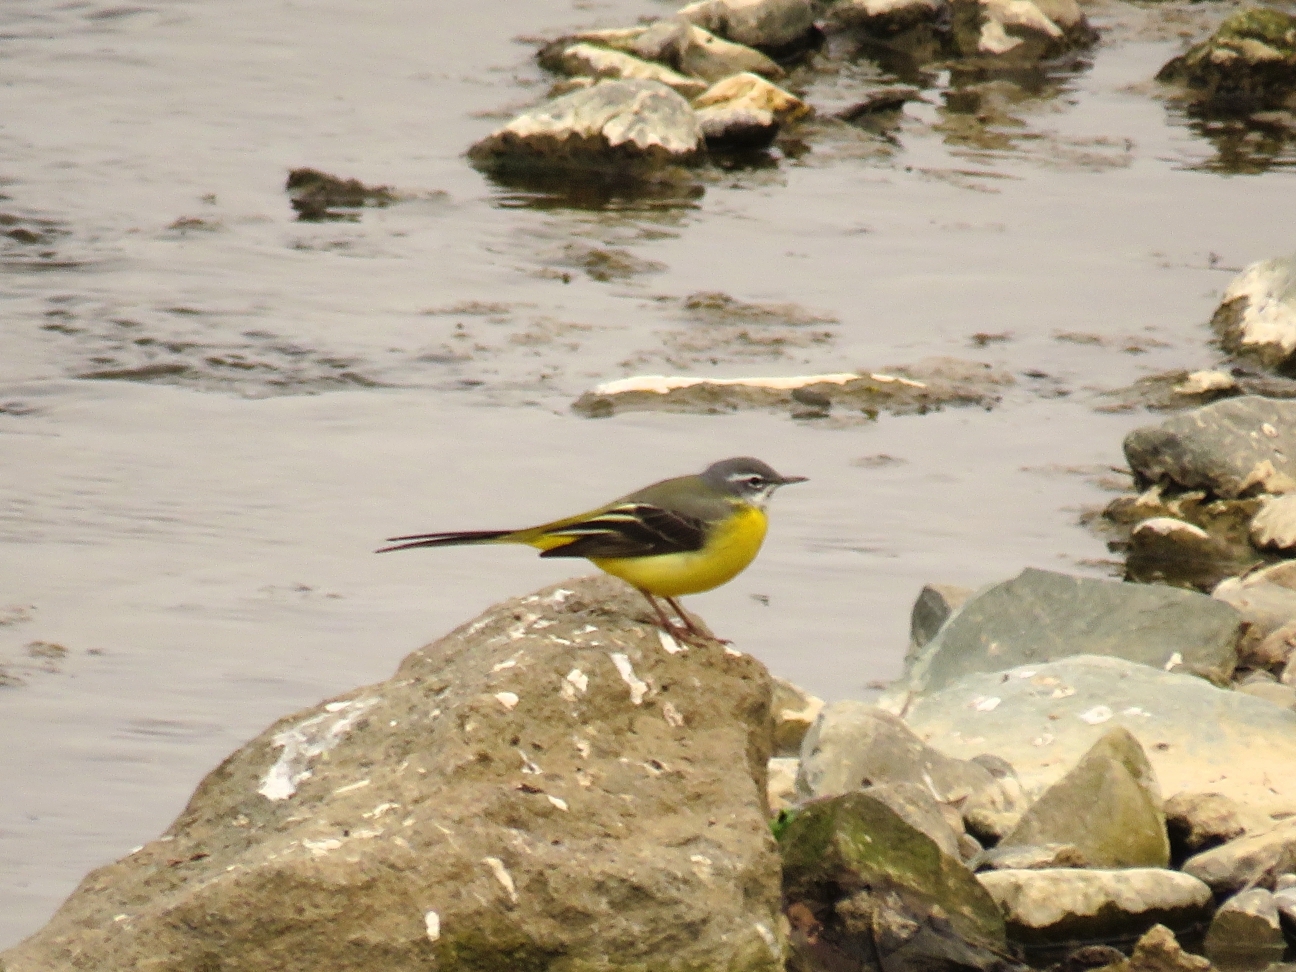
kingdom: Animalia
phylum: Chordata
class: Aves
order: Passeriformes
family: Motacillidae
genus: Motacilla
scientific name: Motacilla cinerea
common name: Grey wagtail
